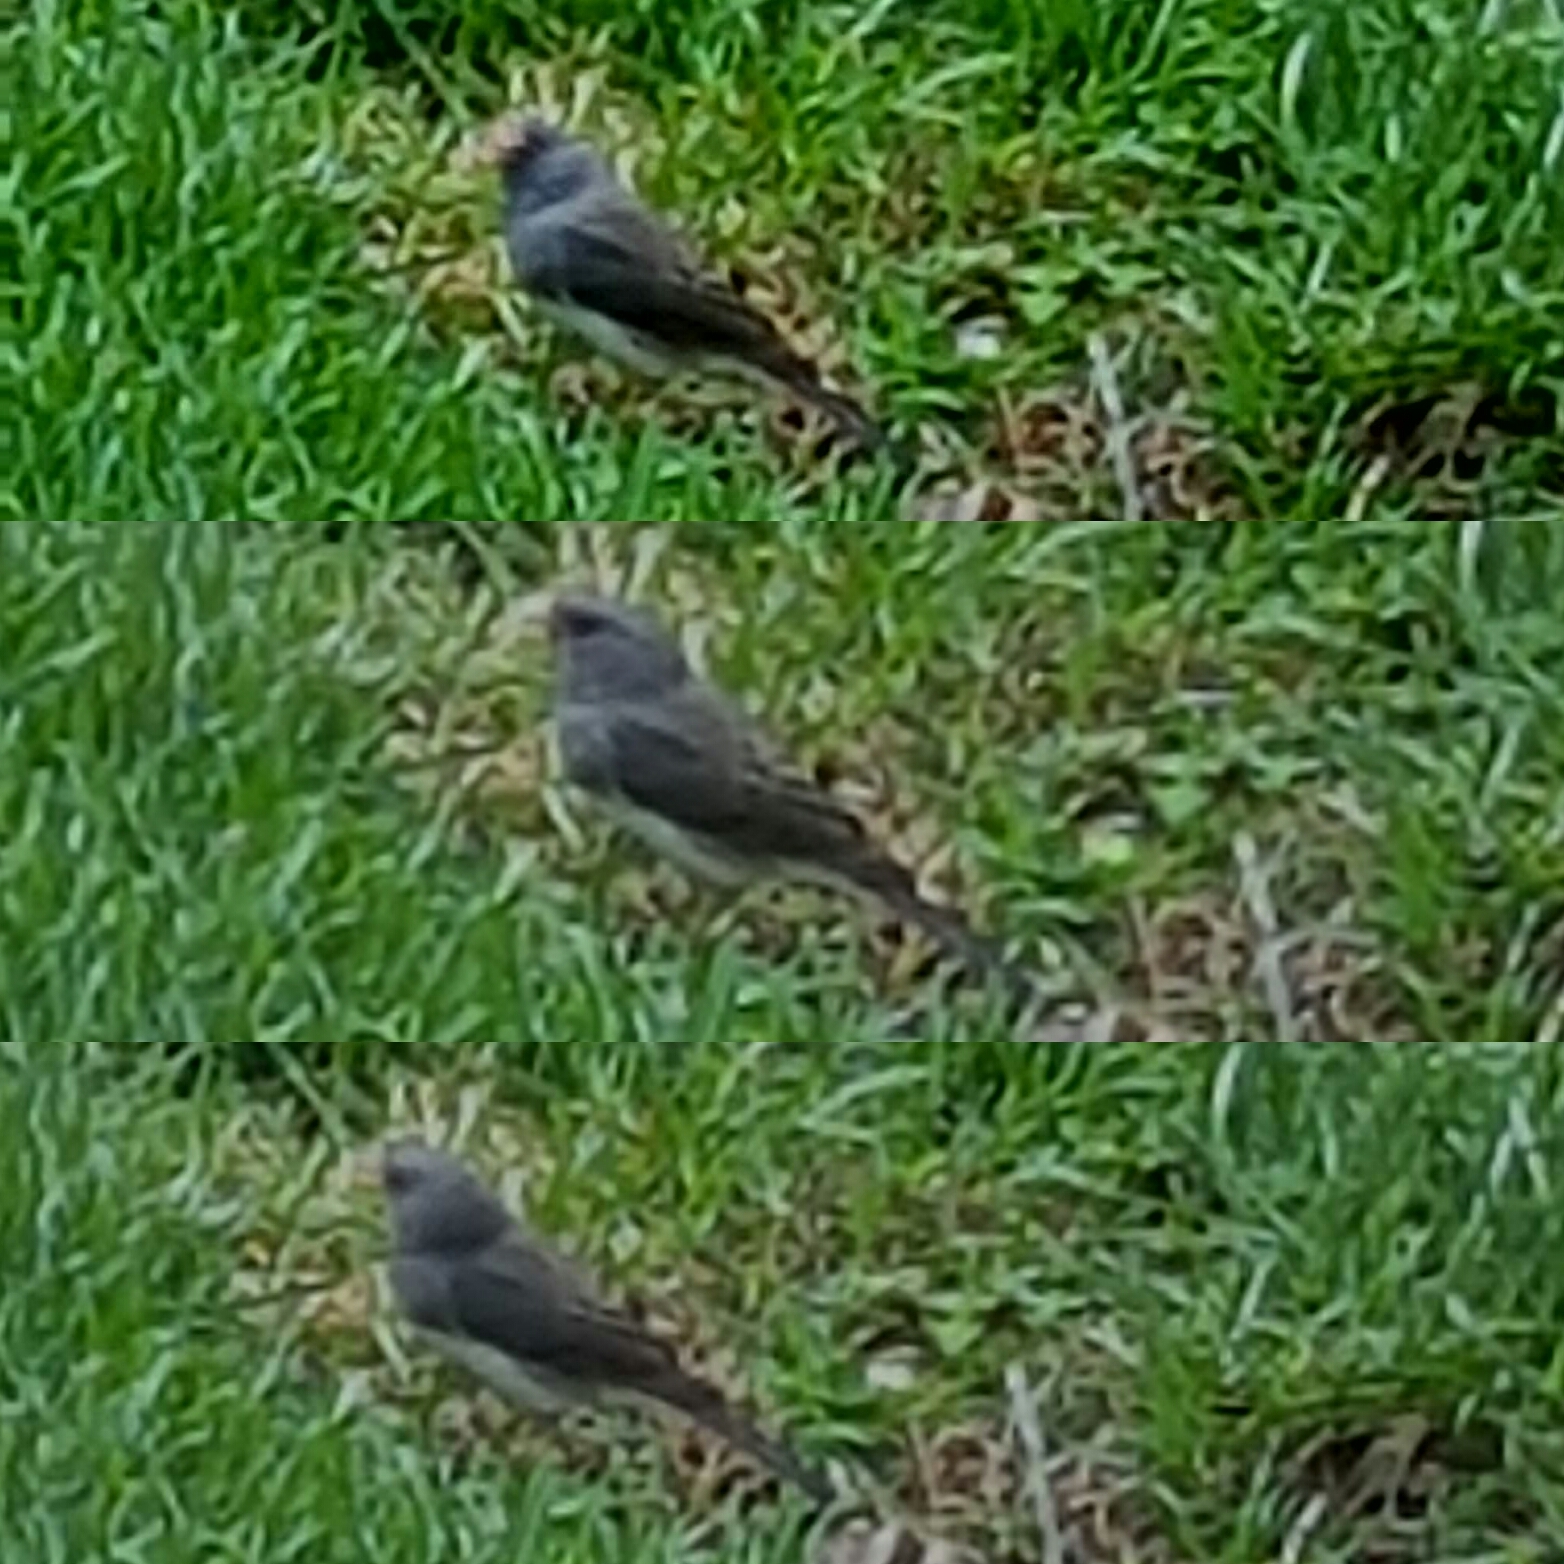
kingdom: Animalia
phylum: Chordata
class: Aves
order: Passeriformes
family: Passerellidae
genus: Junco
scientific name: Junco hyemalis
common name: Dark-eyed junco
